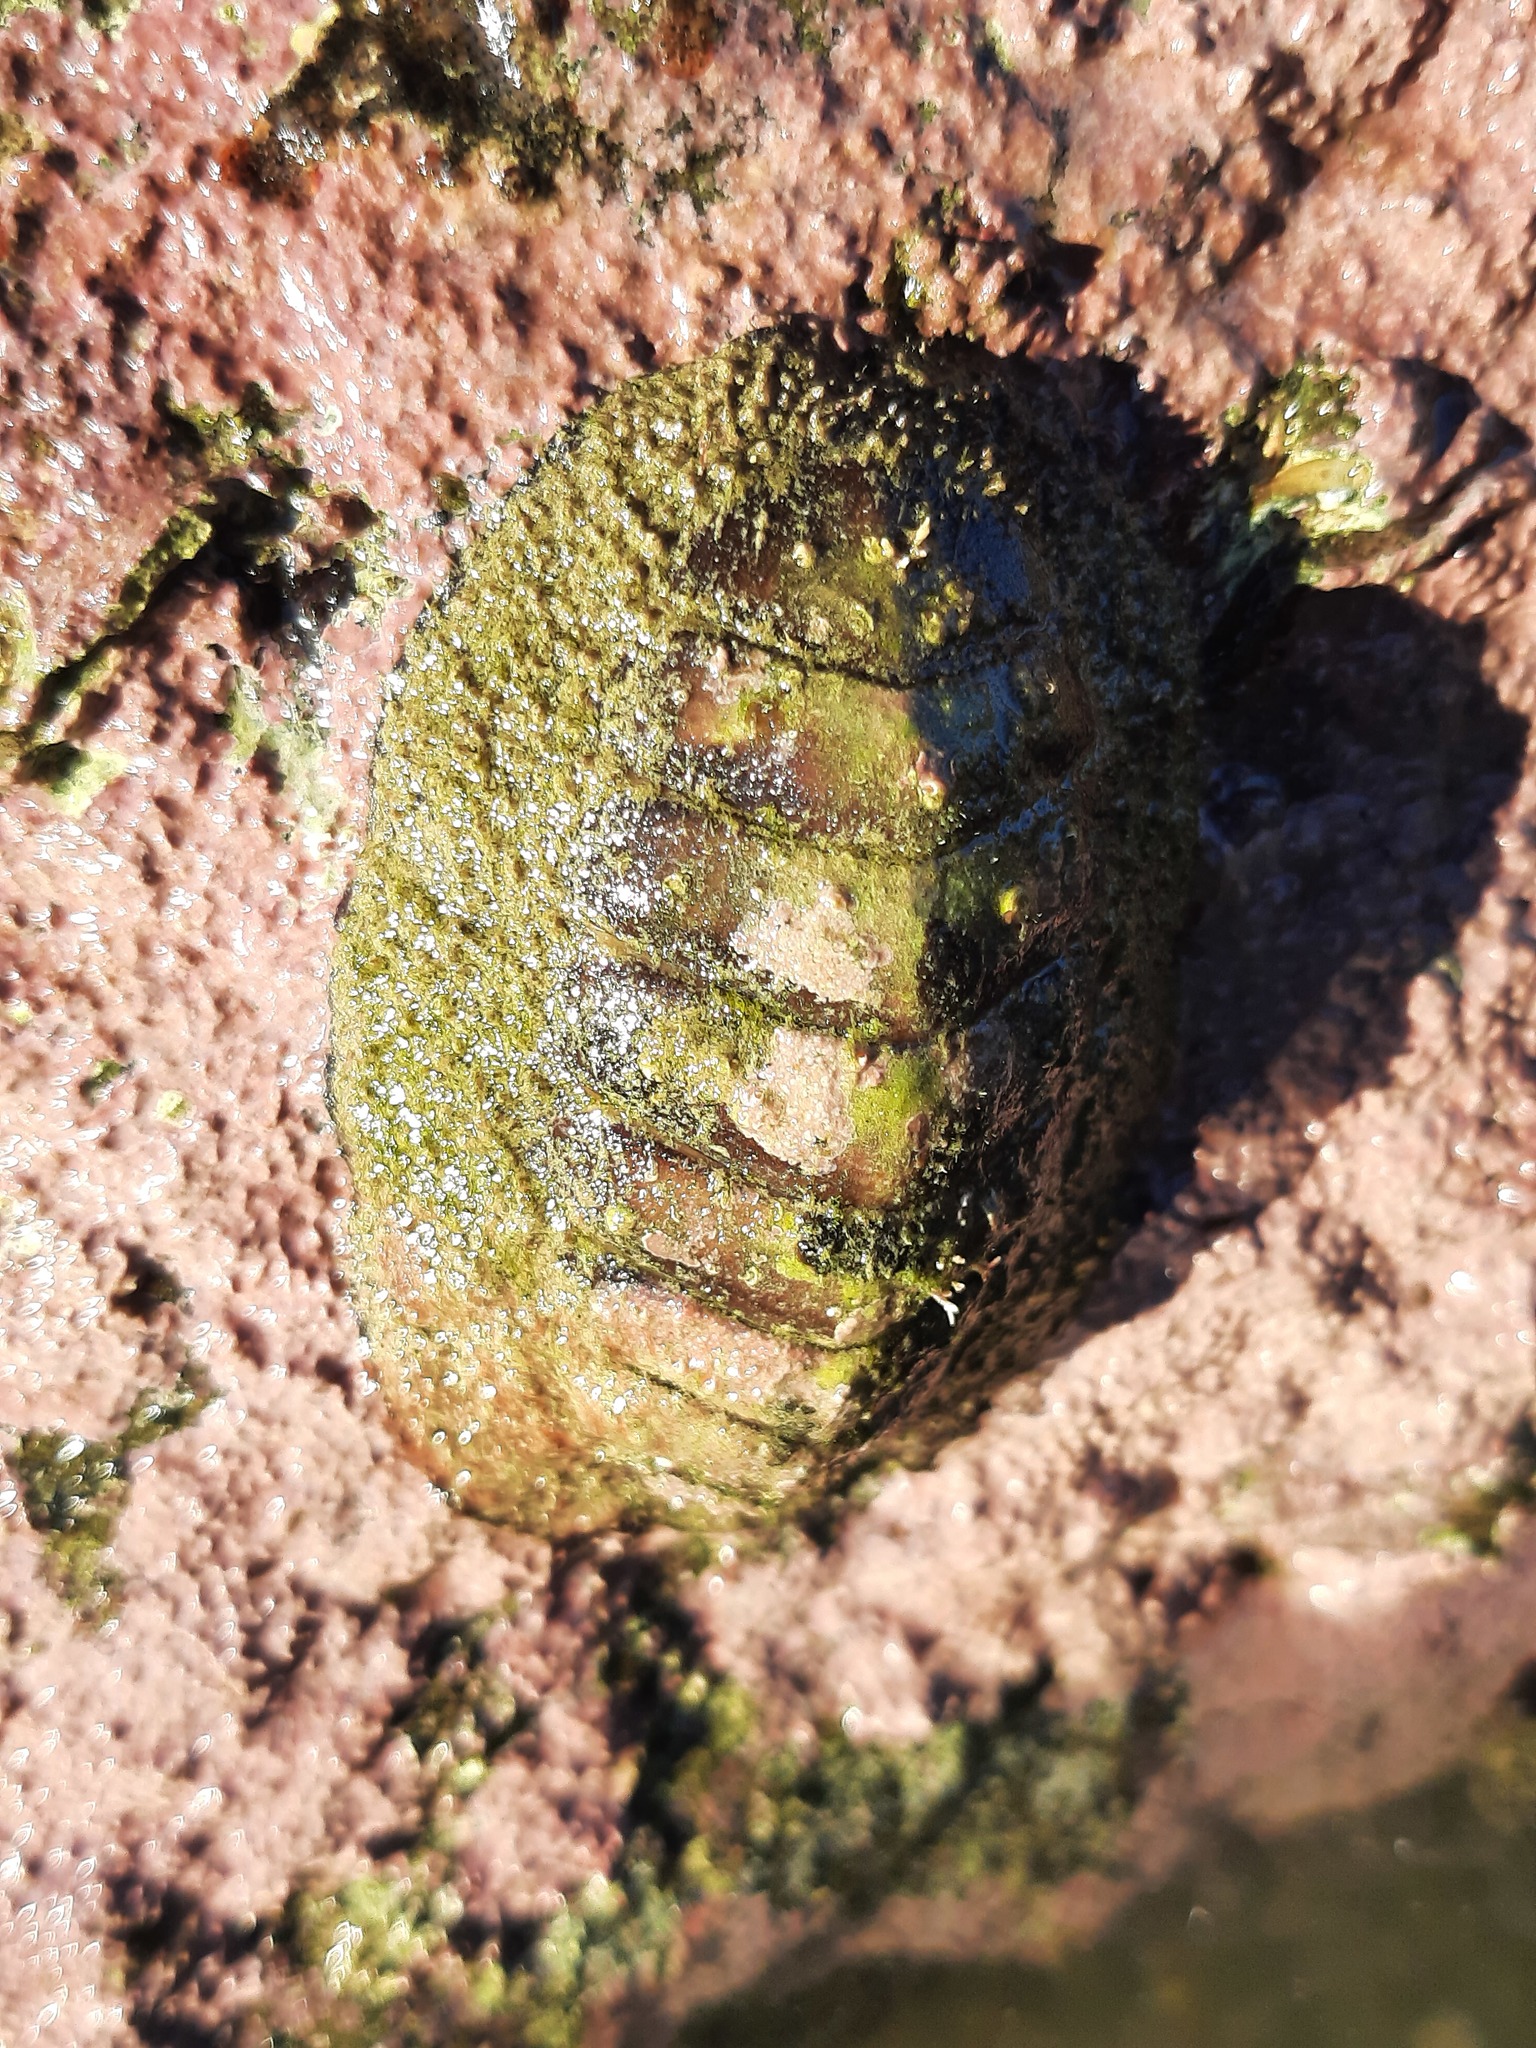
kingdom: Animalia
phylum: Mollusca
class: Polyplacophora
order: Callochitonida
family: Callochitonidae
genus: Eudoxochiton
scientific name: Eudoxochiton nobilis
